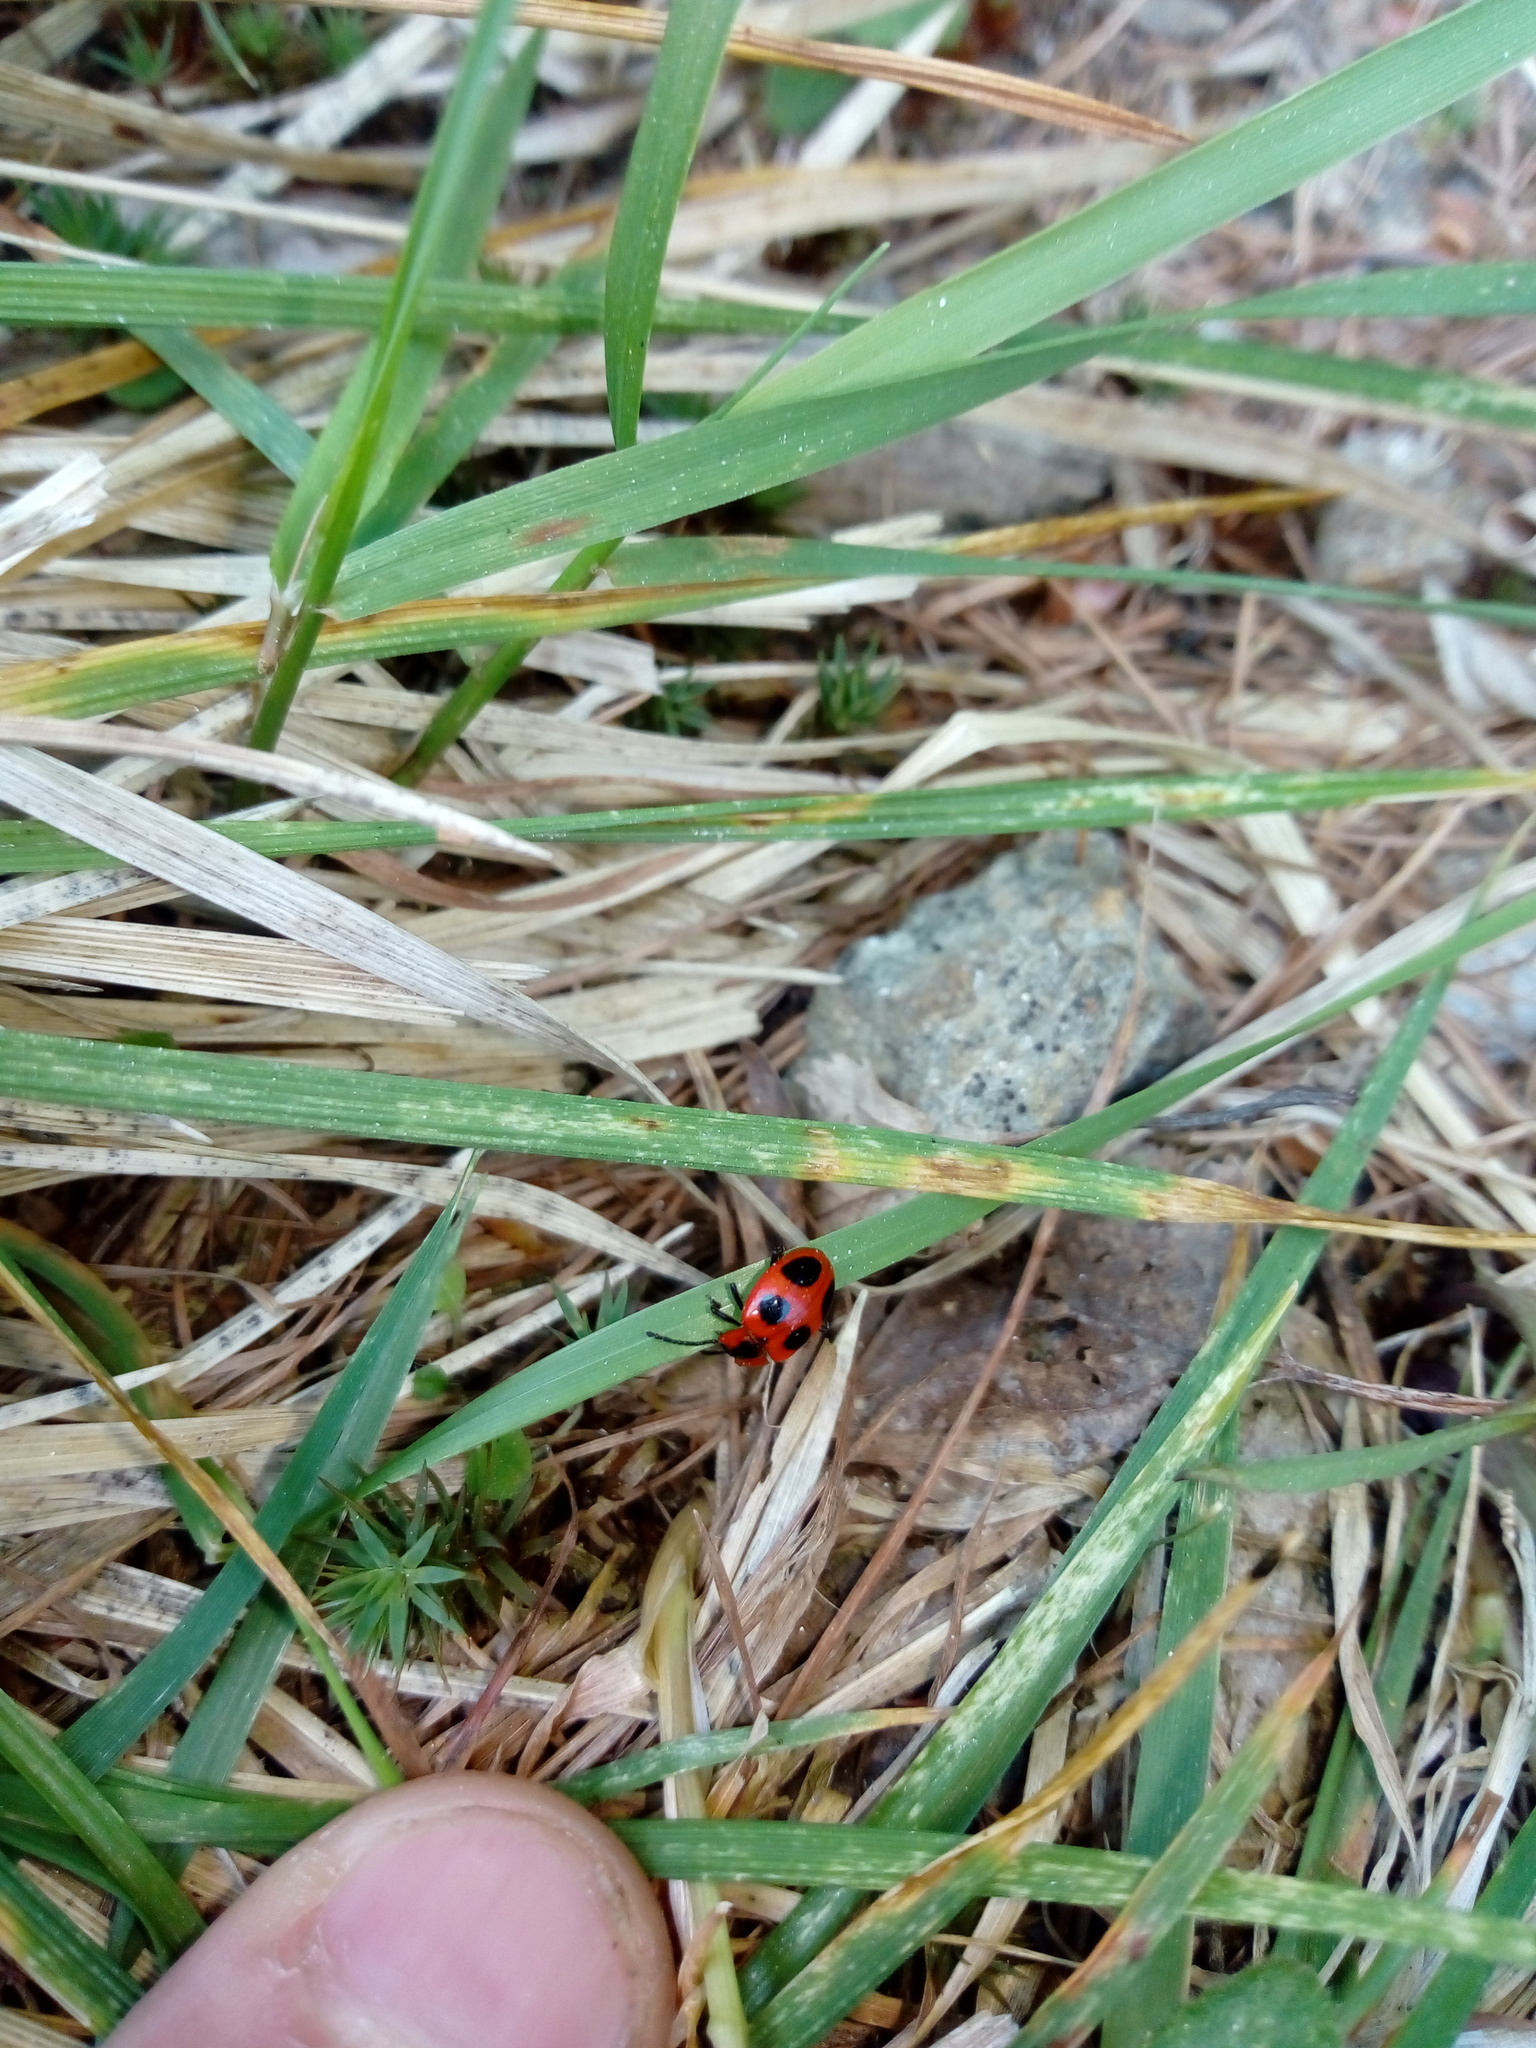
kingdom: Animalia
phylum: Arthropoda
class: Insecta
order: Coleoptera
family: Endomychidae
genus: Endomychus
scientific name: Endomychus coccineus
